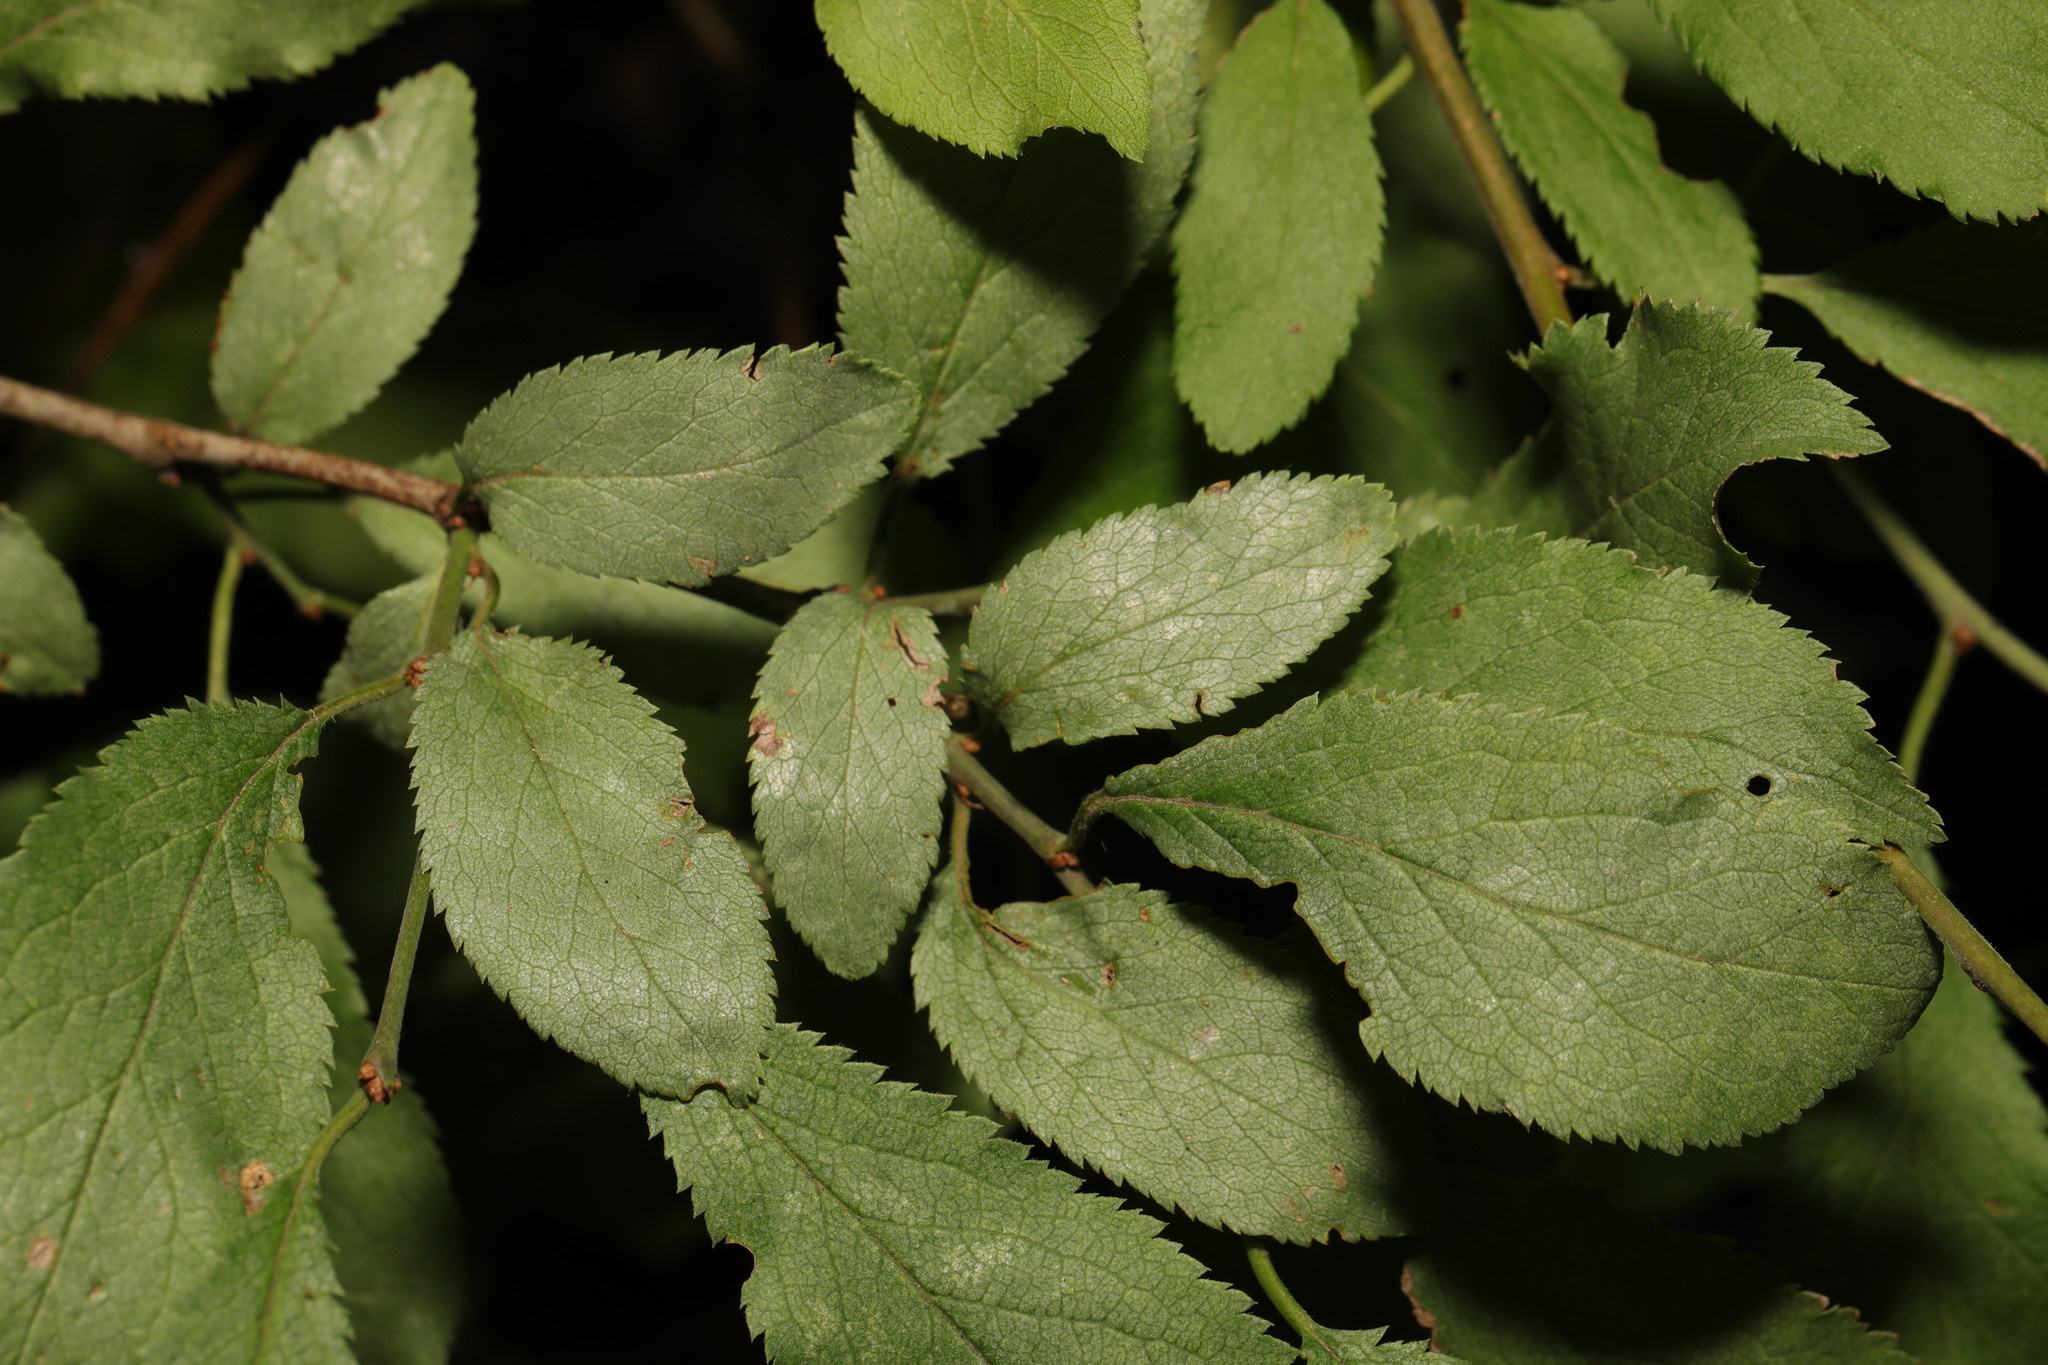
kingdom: Plantae
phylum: Tracheophyta
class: Magnoliopsida
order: Rosales
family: Rosaceae
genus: Prunus
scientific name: Prunus spinosa
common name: Blackthorn
